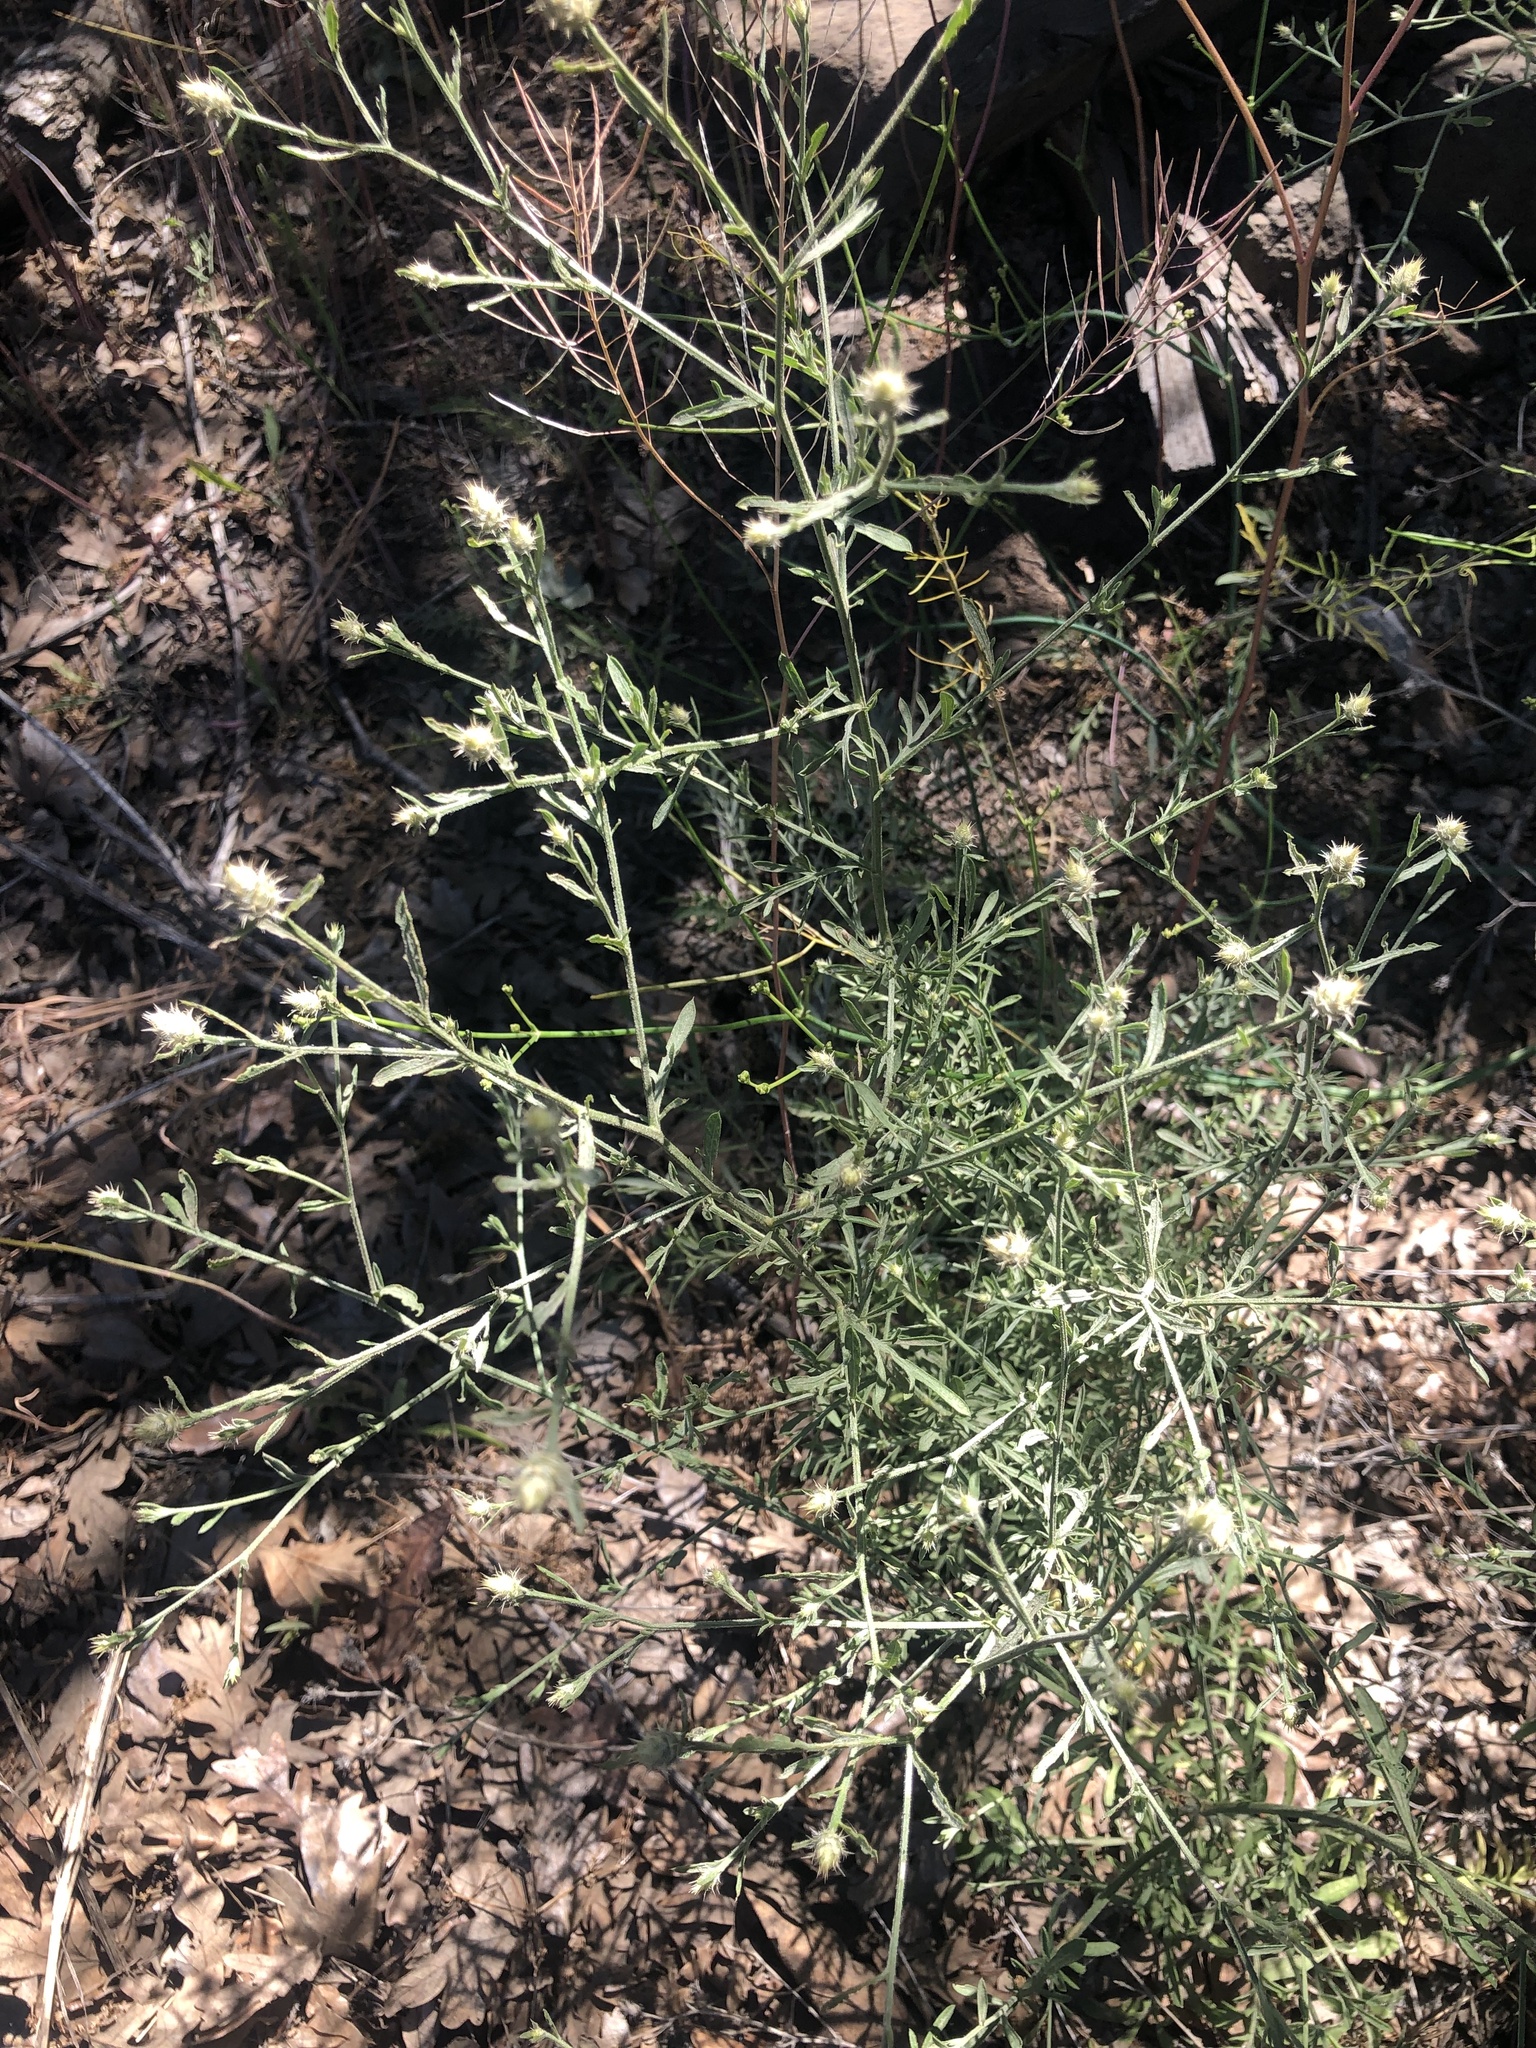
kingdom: Plantae
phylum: Tracheophyta
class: Magnoliopsida
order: Asterales
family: Asteraceae
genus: Centaurea
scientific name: Centaurea diffusa
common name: Diffuse knapweed
